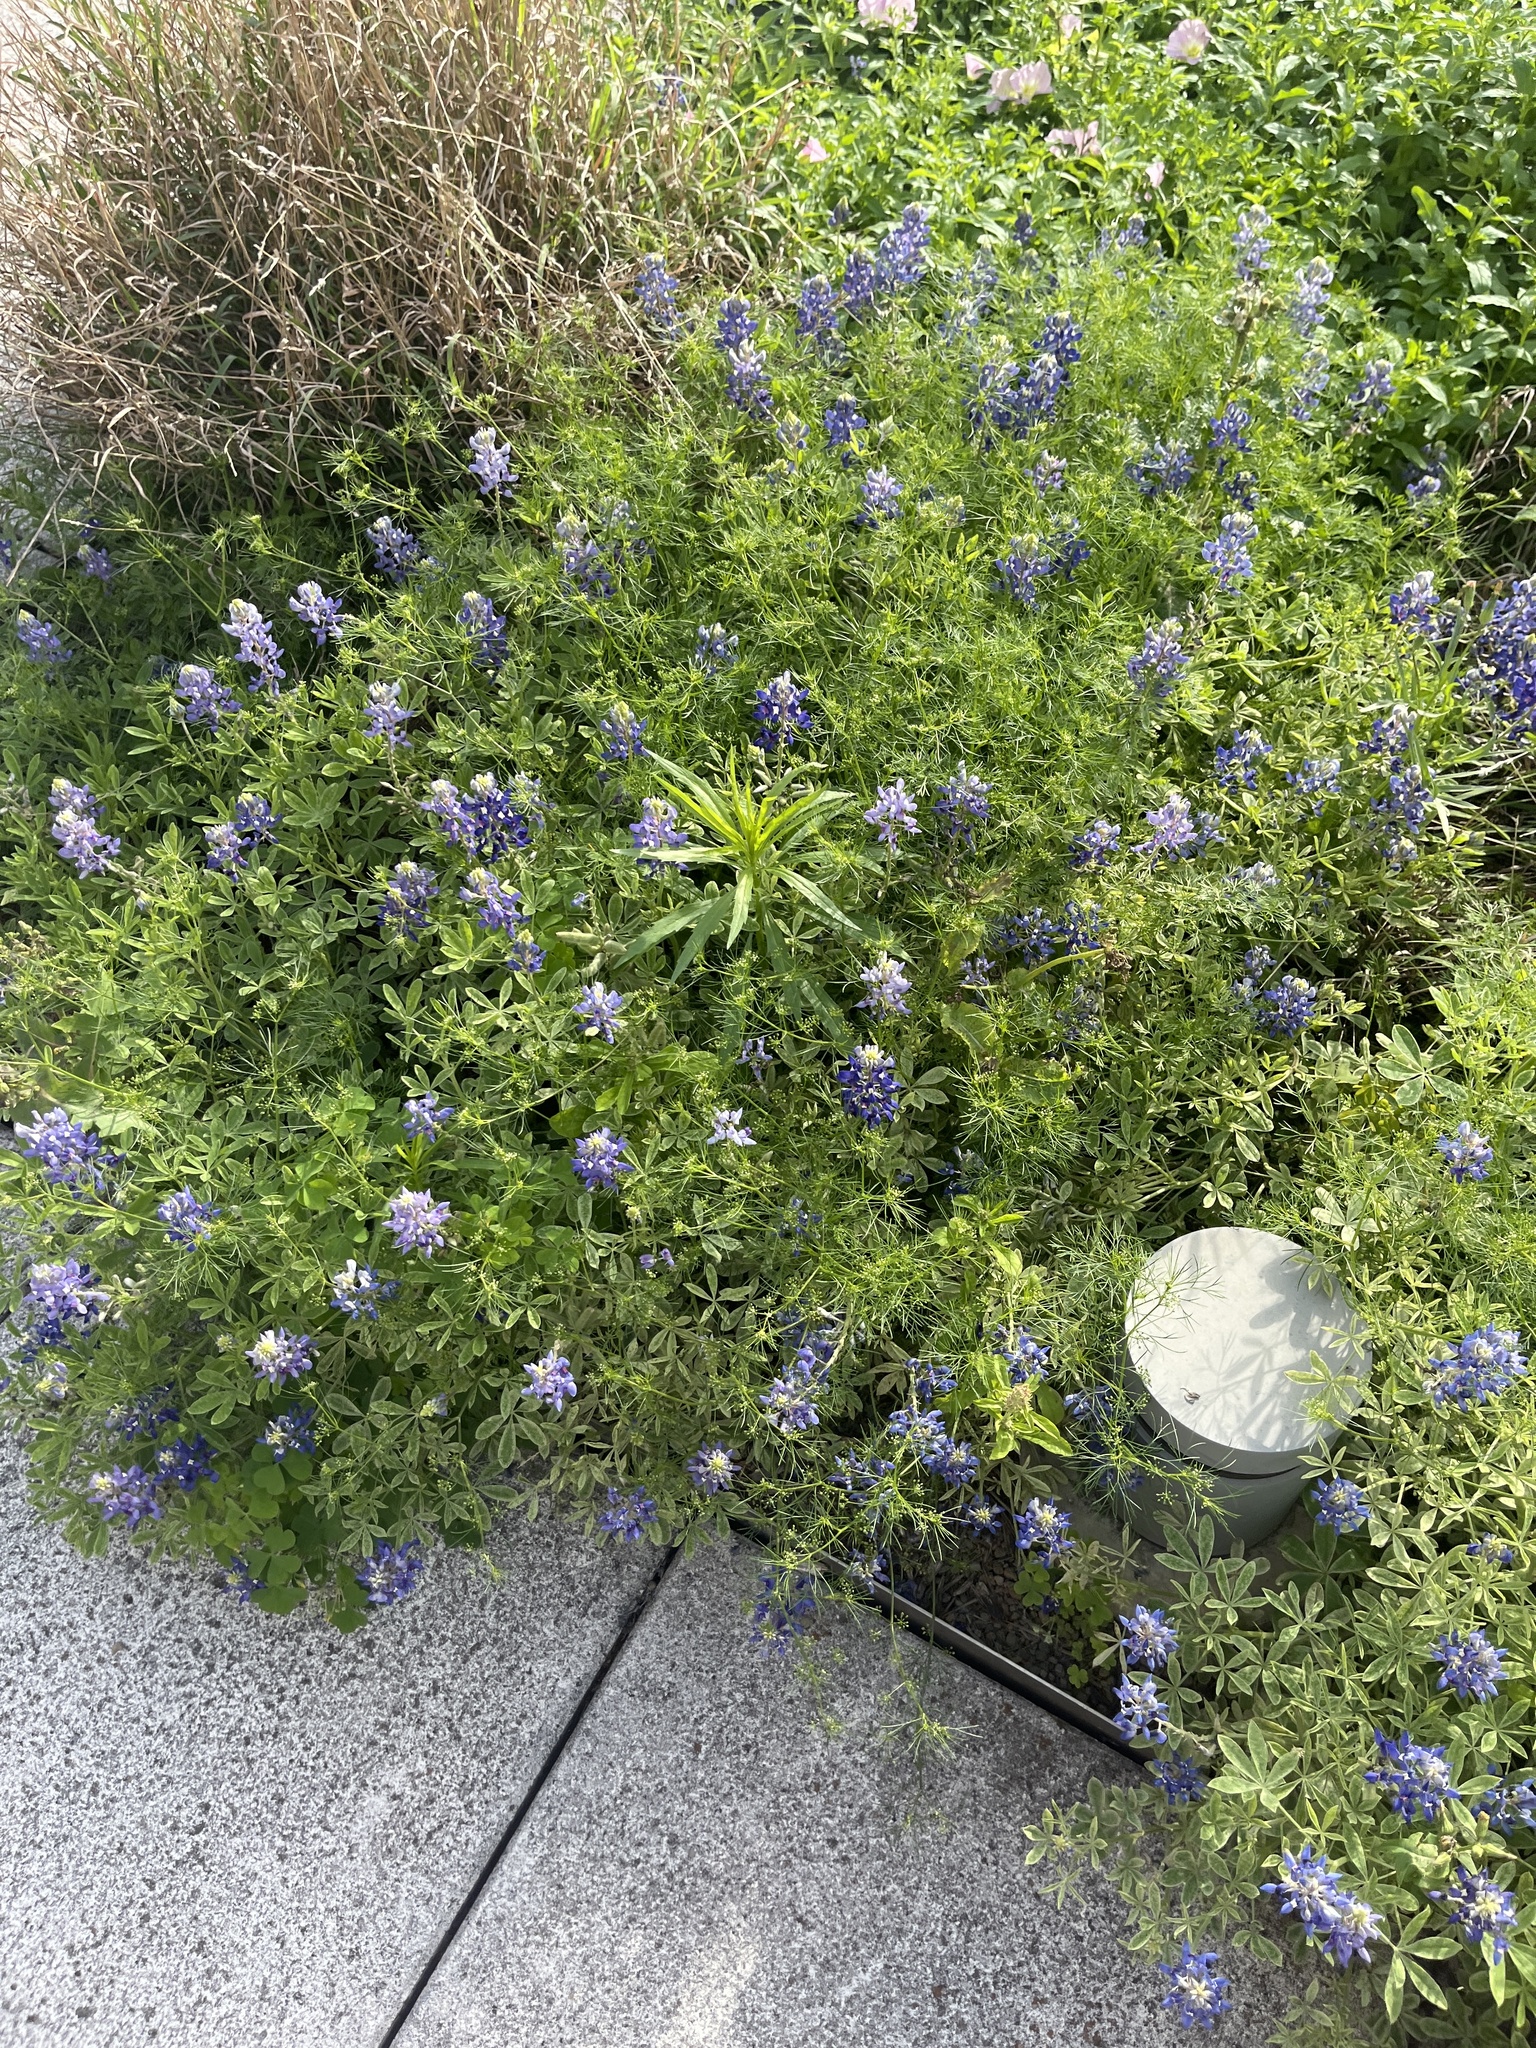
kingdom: Plantae
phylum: Tracheophyta
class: Magnoliopsida
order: Fabales
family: Fabaceae
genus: Lupinus
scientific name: Lupinus texensis
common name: Texas bluebonnet
